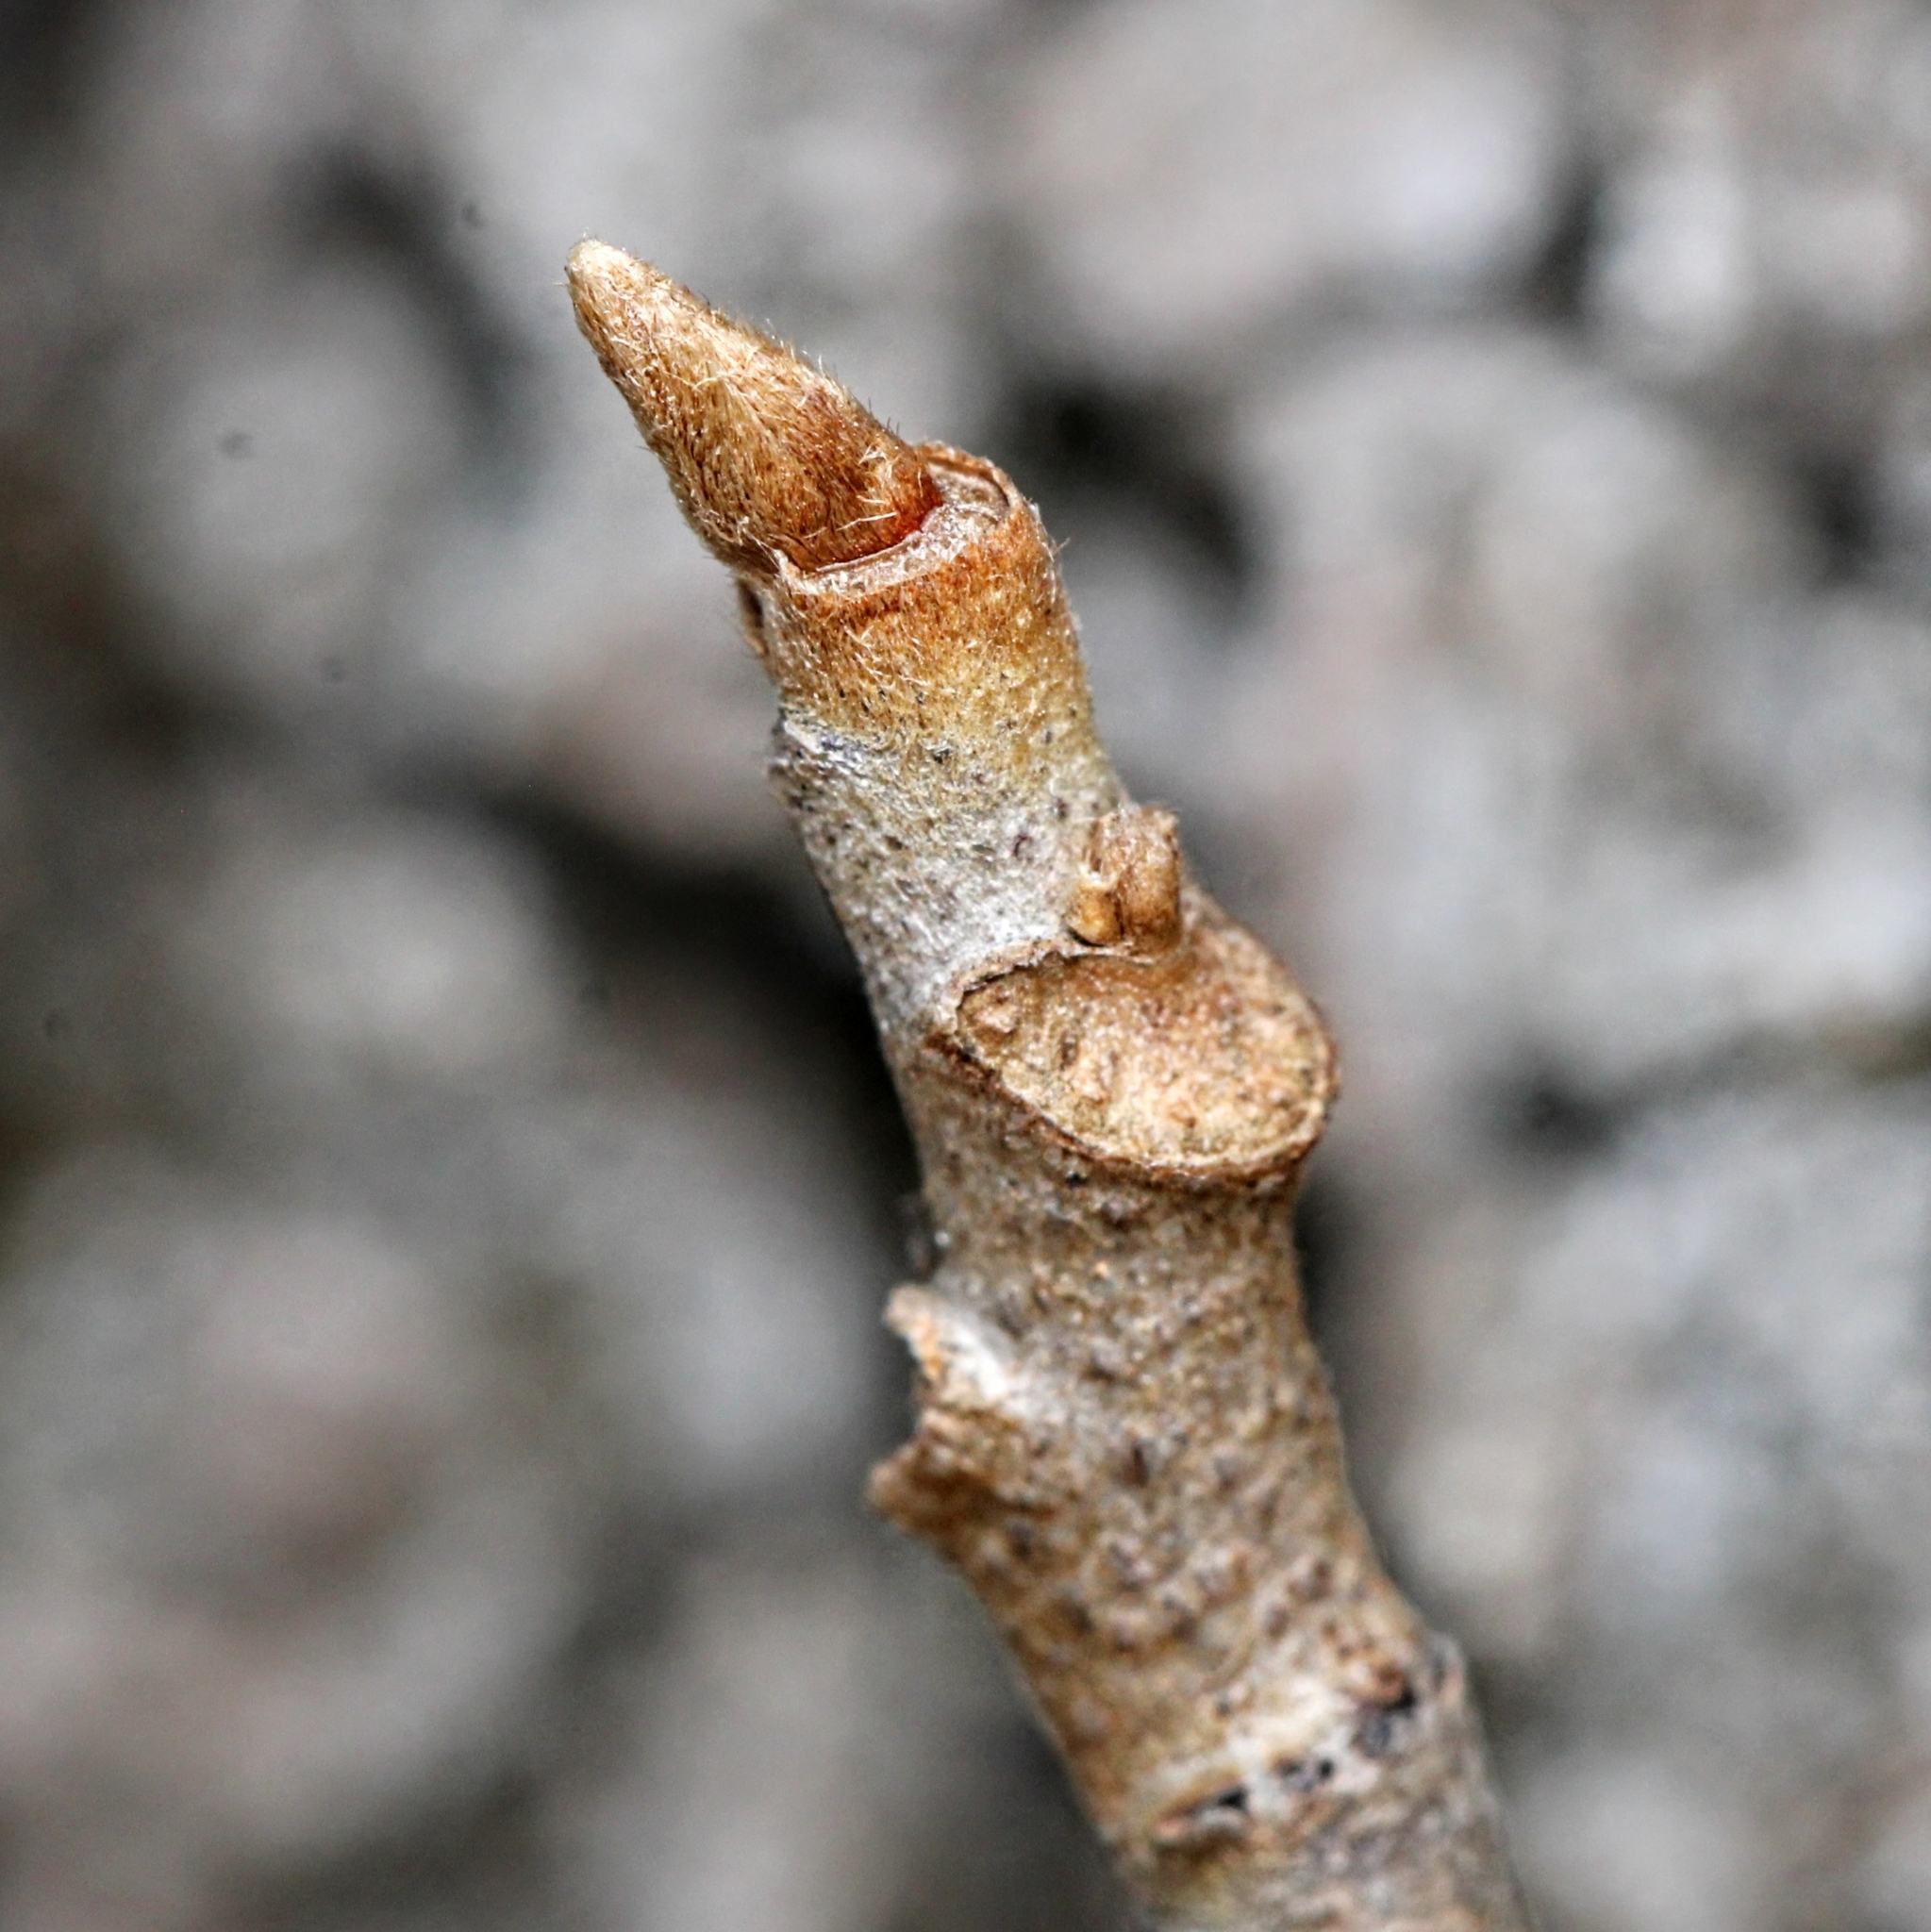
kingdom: Plantae
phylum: Tracheophyta
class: Magnoliopsida
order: Sapindales
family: Anacardiaceae
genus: Toxicodendron
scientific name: Toxicodendron radicans
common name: Poison ivy
